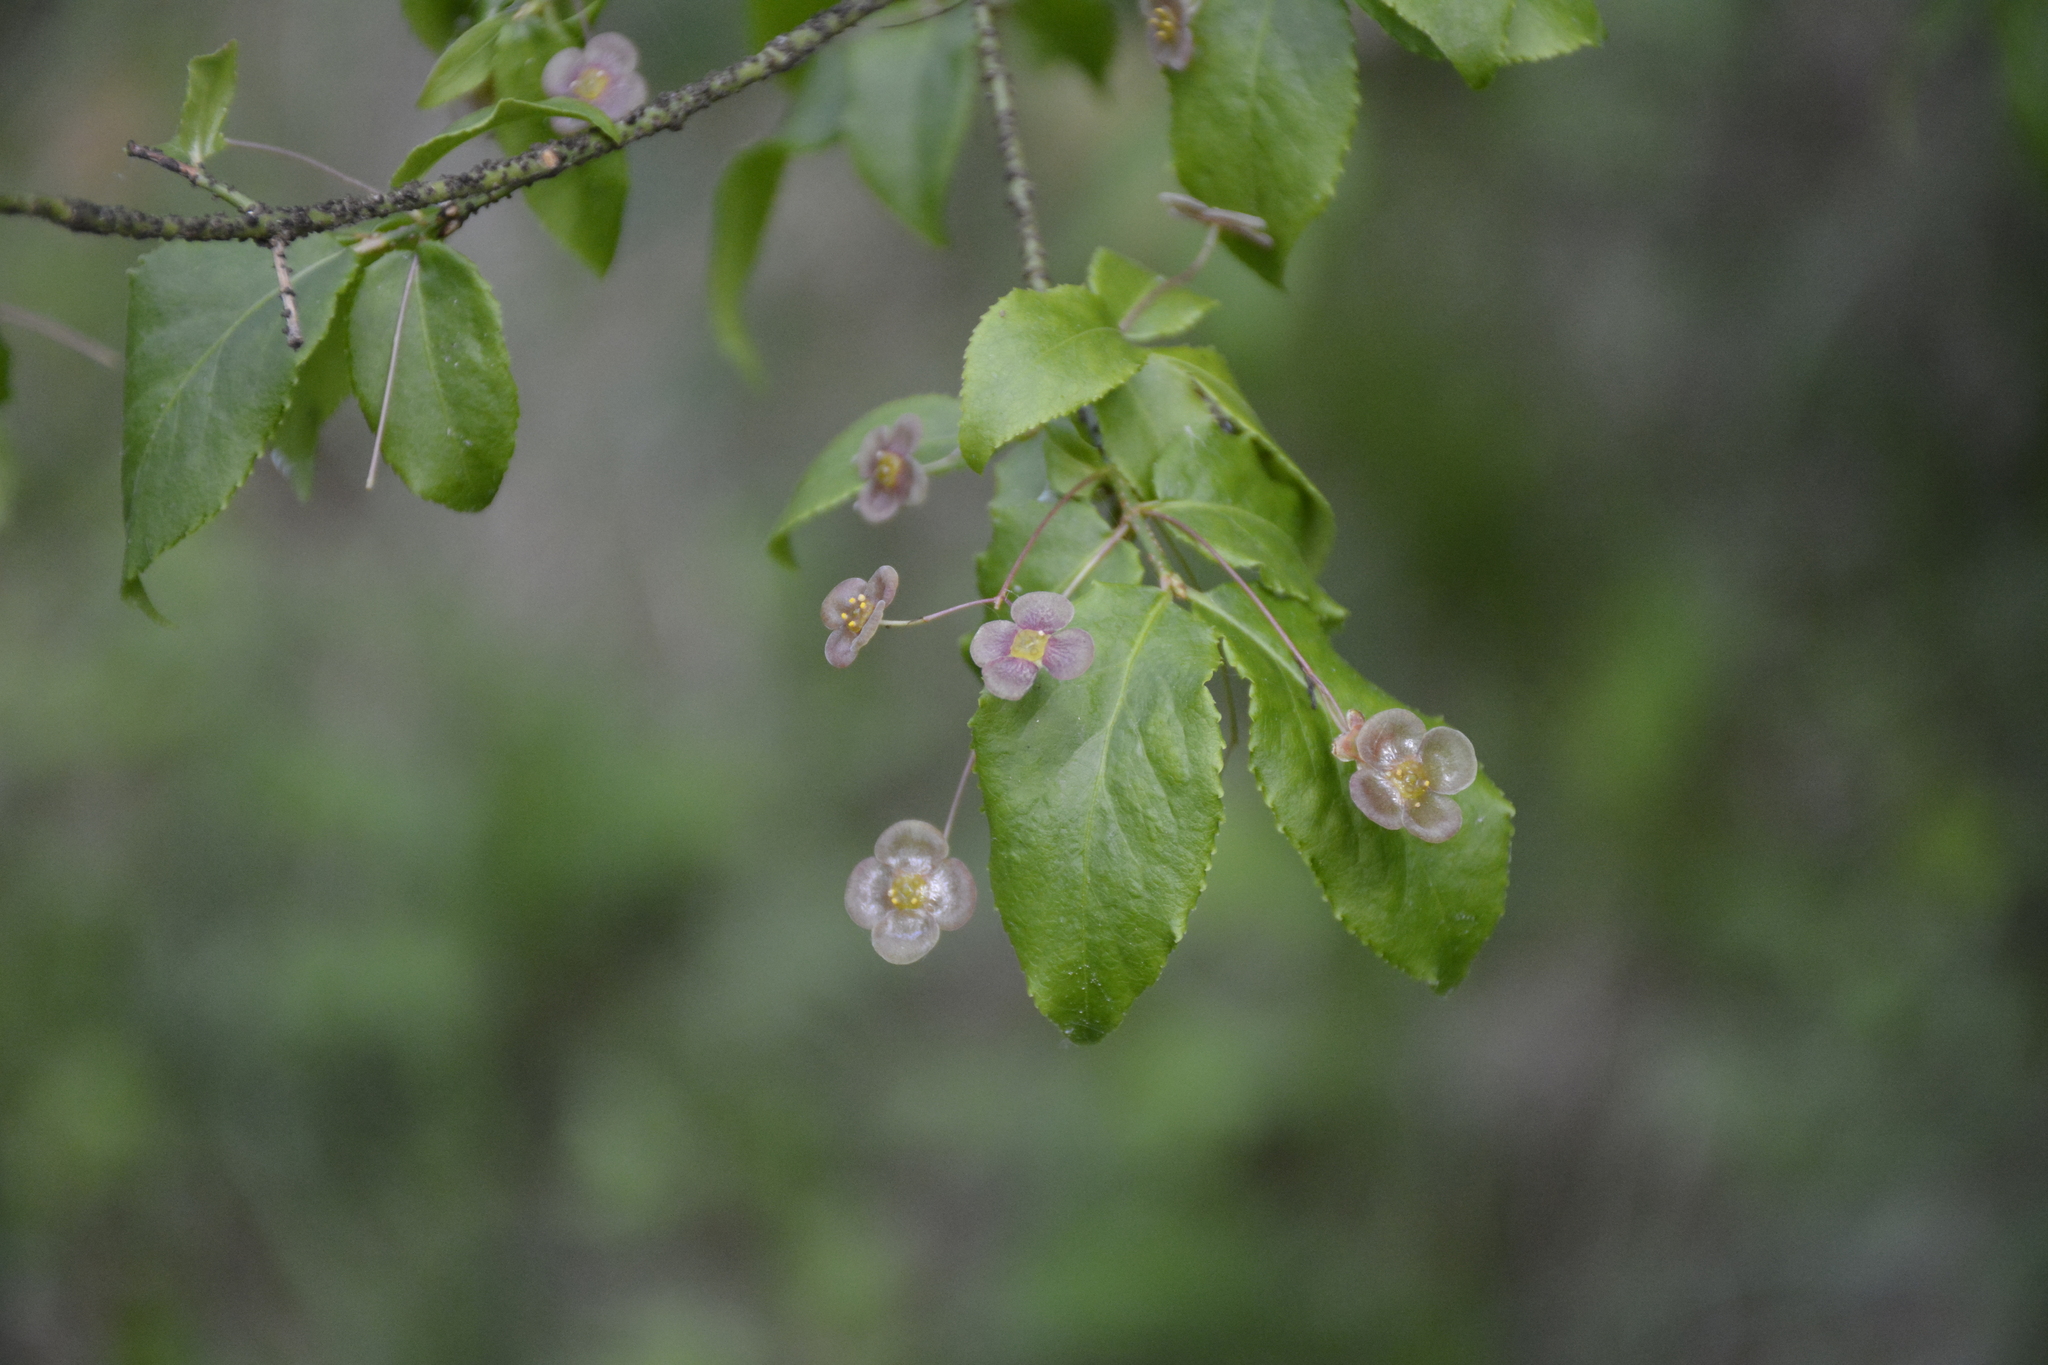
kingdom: Plantae
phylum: Tracheophyta
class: Magnoliopsida
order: Celastrales
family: Celastraceae
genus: Euonymus
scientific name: Euonymus verrucosus
